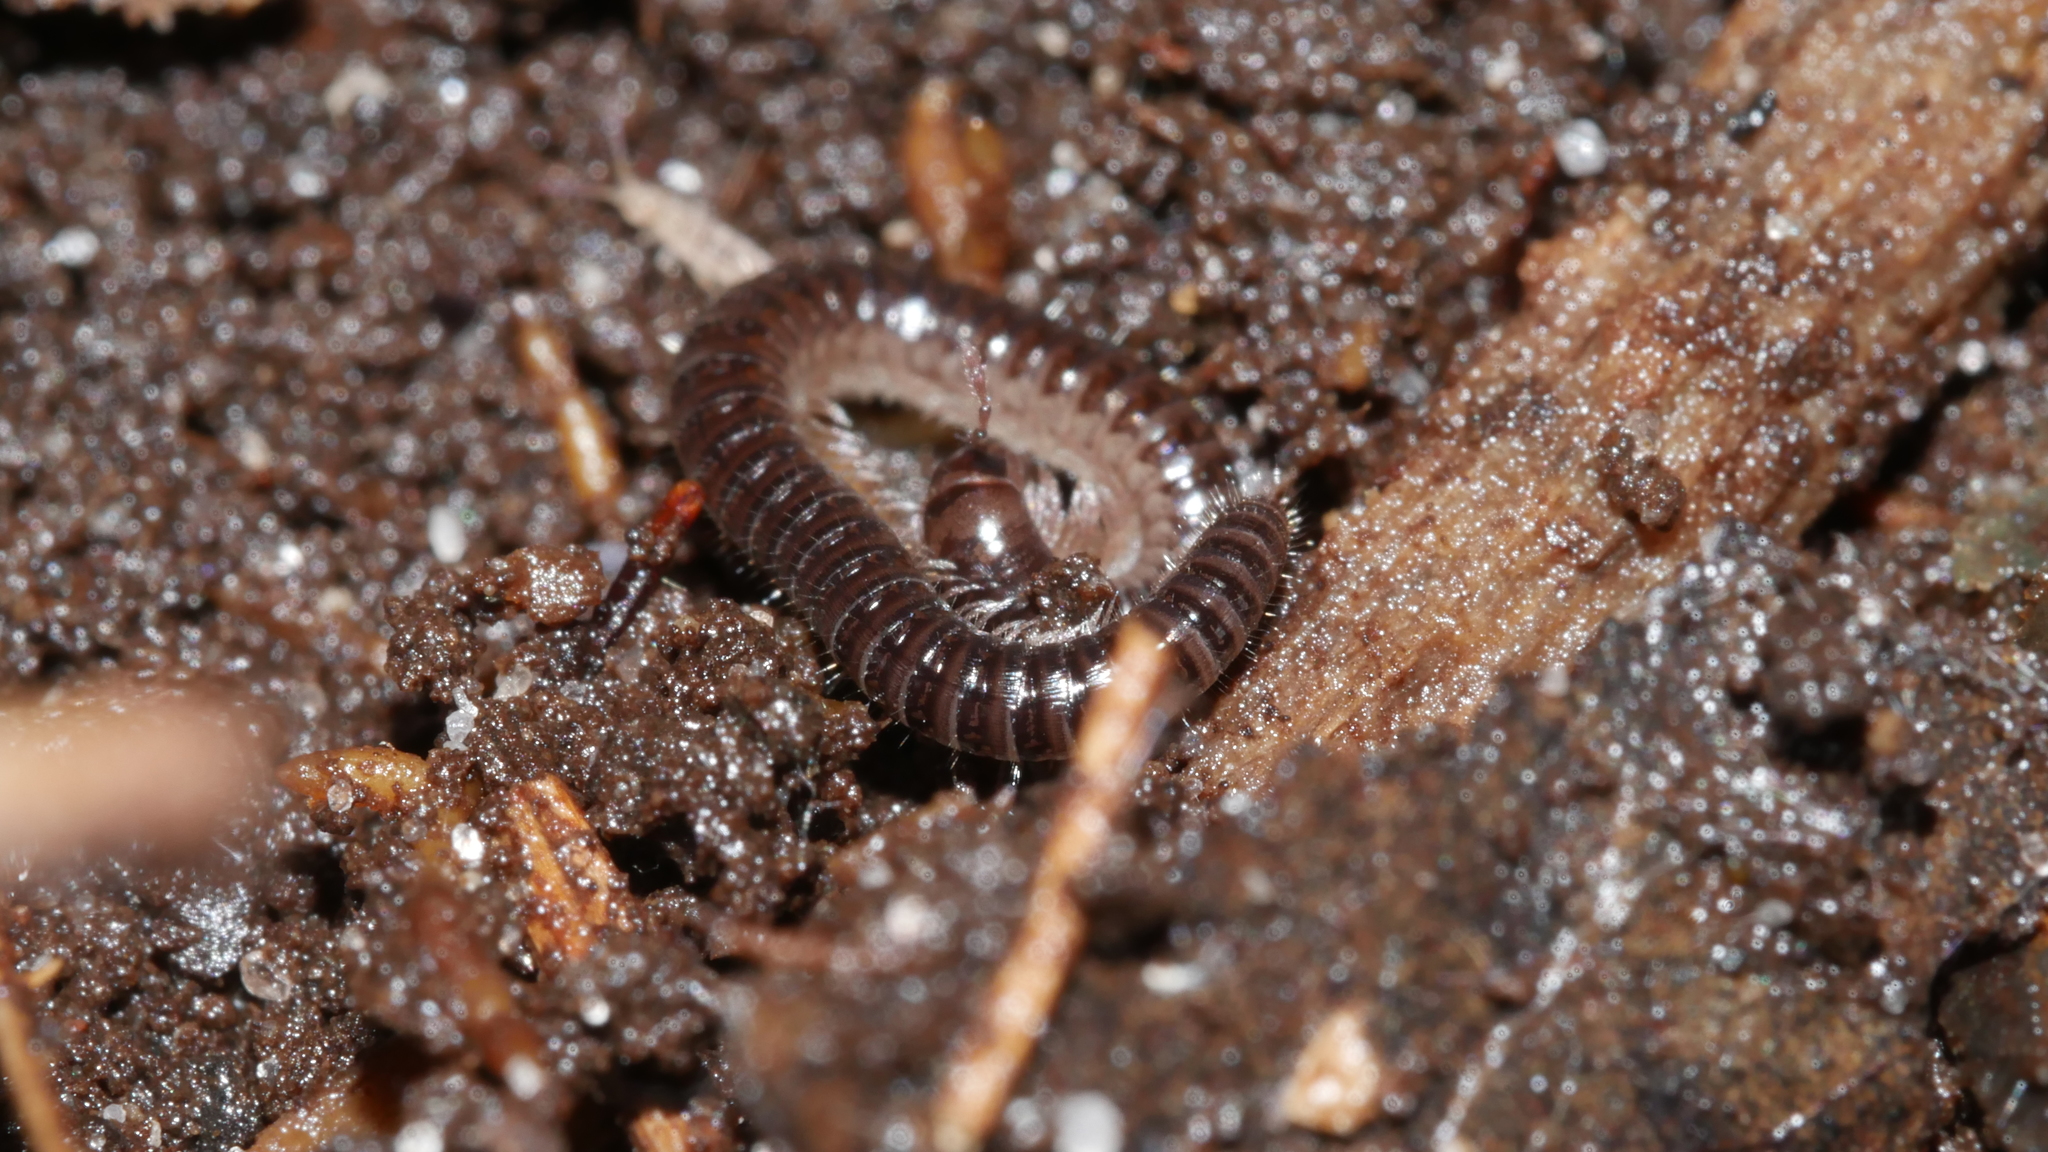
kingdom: Animalia
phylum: Arthropoda
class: Diplopoda
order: Julida
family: Julidae
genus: Ophyiulus
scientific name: Ophyiulus pilosus
